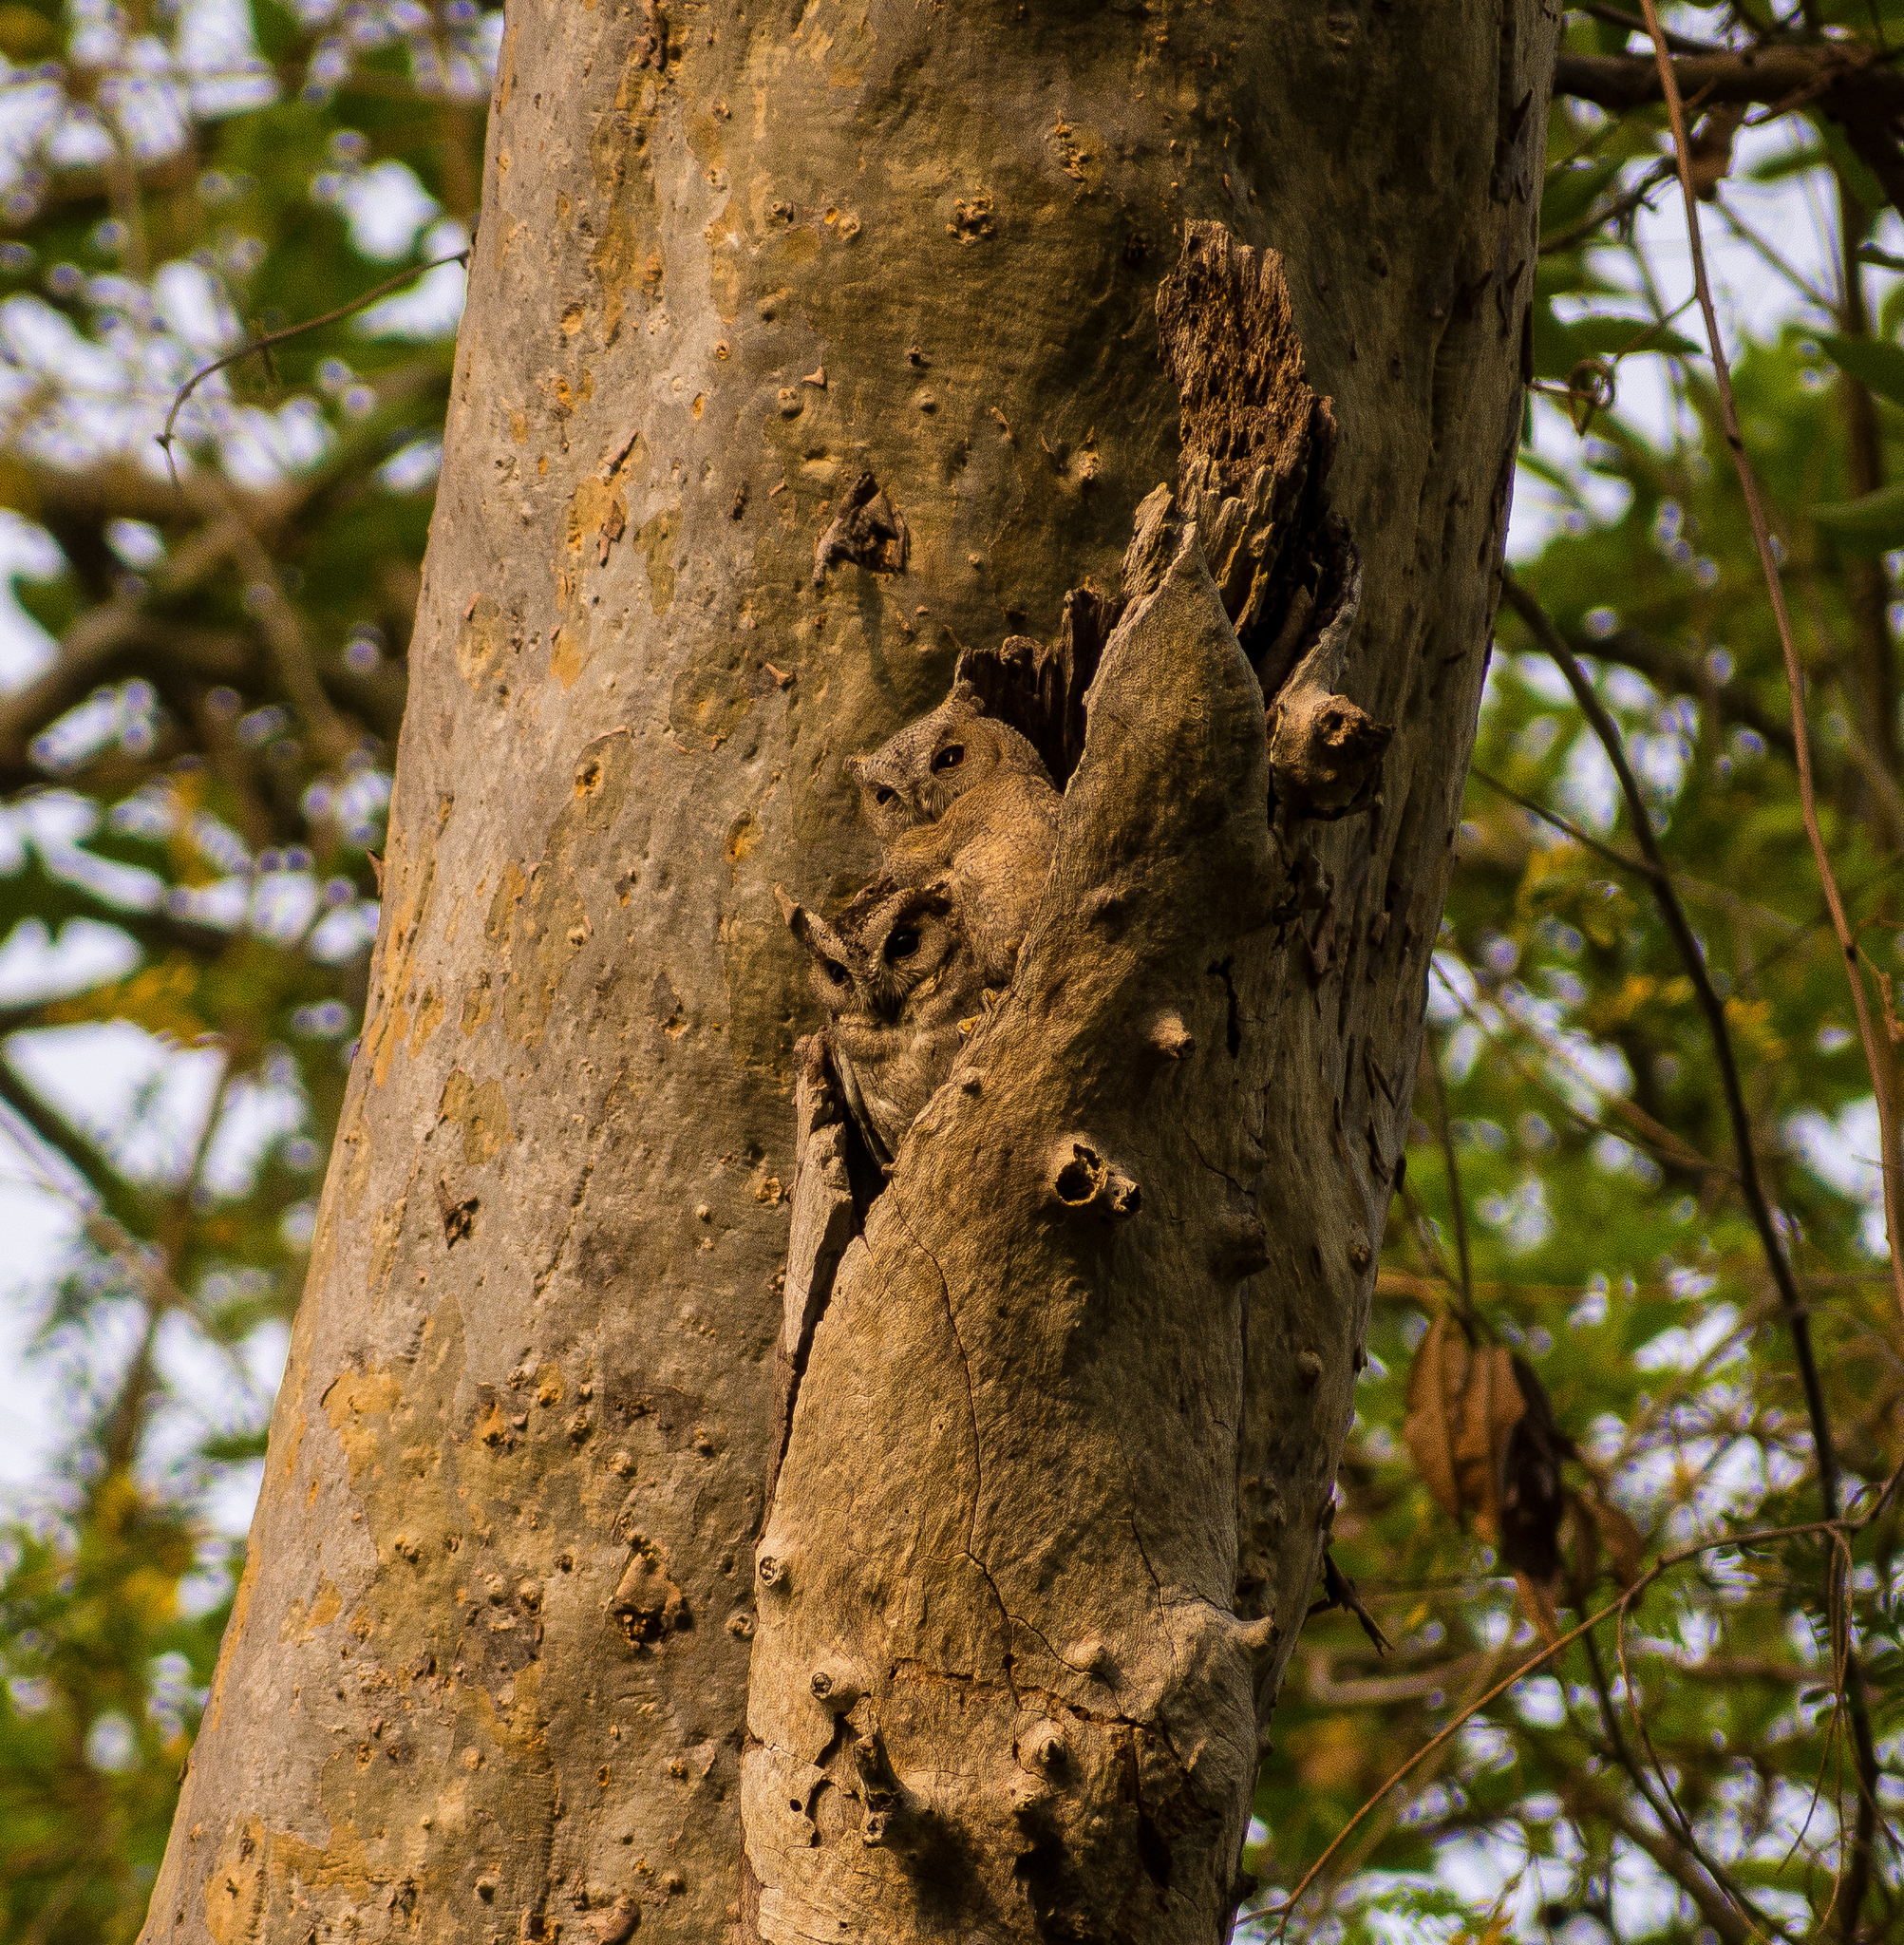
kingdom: Animalia
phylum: Chordata
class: Aves
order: Strigiformes
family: Strigidae
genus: Otus
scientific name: Otus bakkamoena
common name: Indian scops owl
